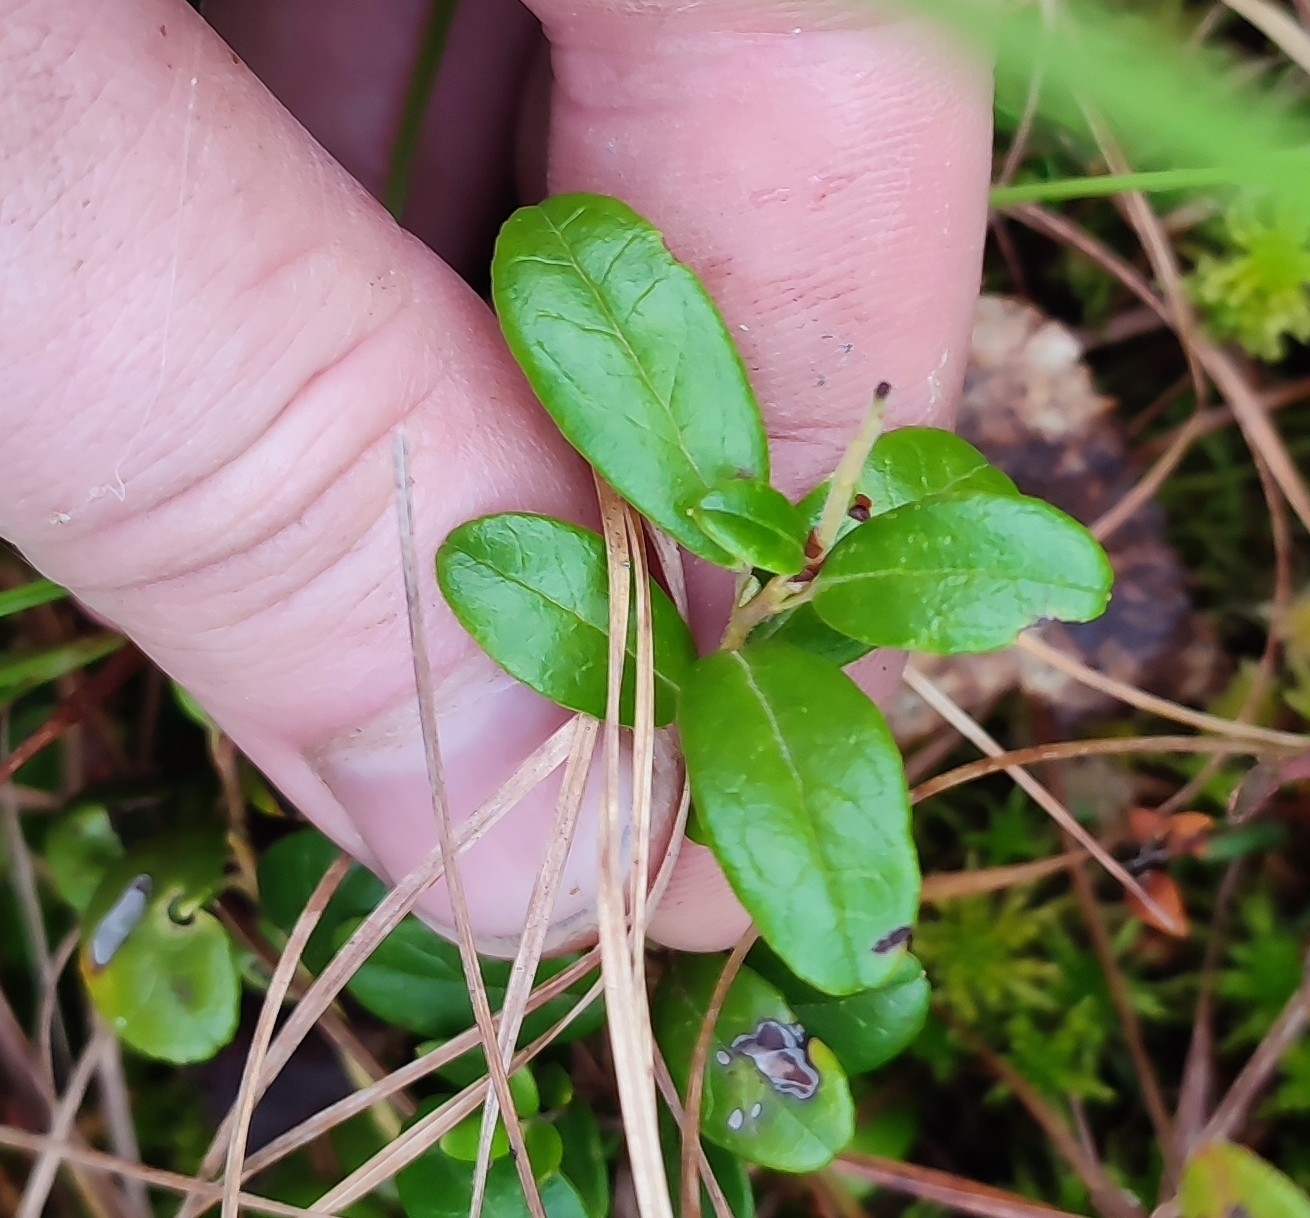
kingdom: Plantae
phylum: Tracheophyta
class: Magnoliopsida
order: Ericales
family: Ericaceae
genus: Vaccinium
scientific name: Vaccinium vitis-idaea
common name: Cowberry
